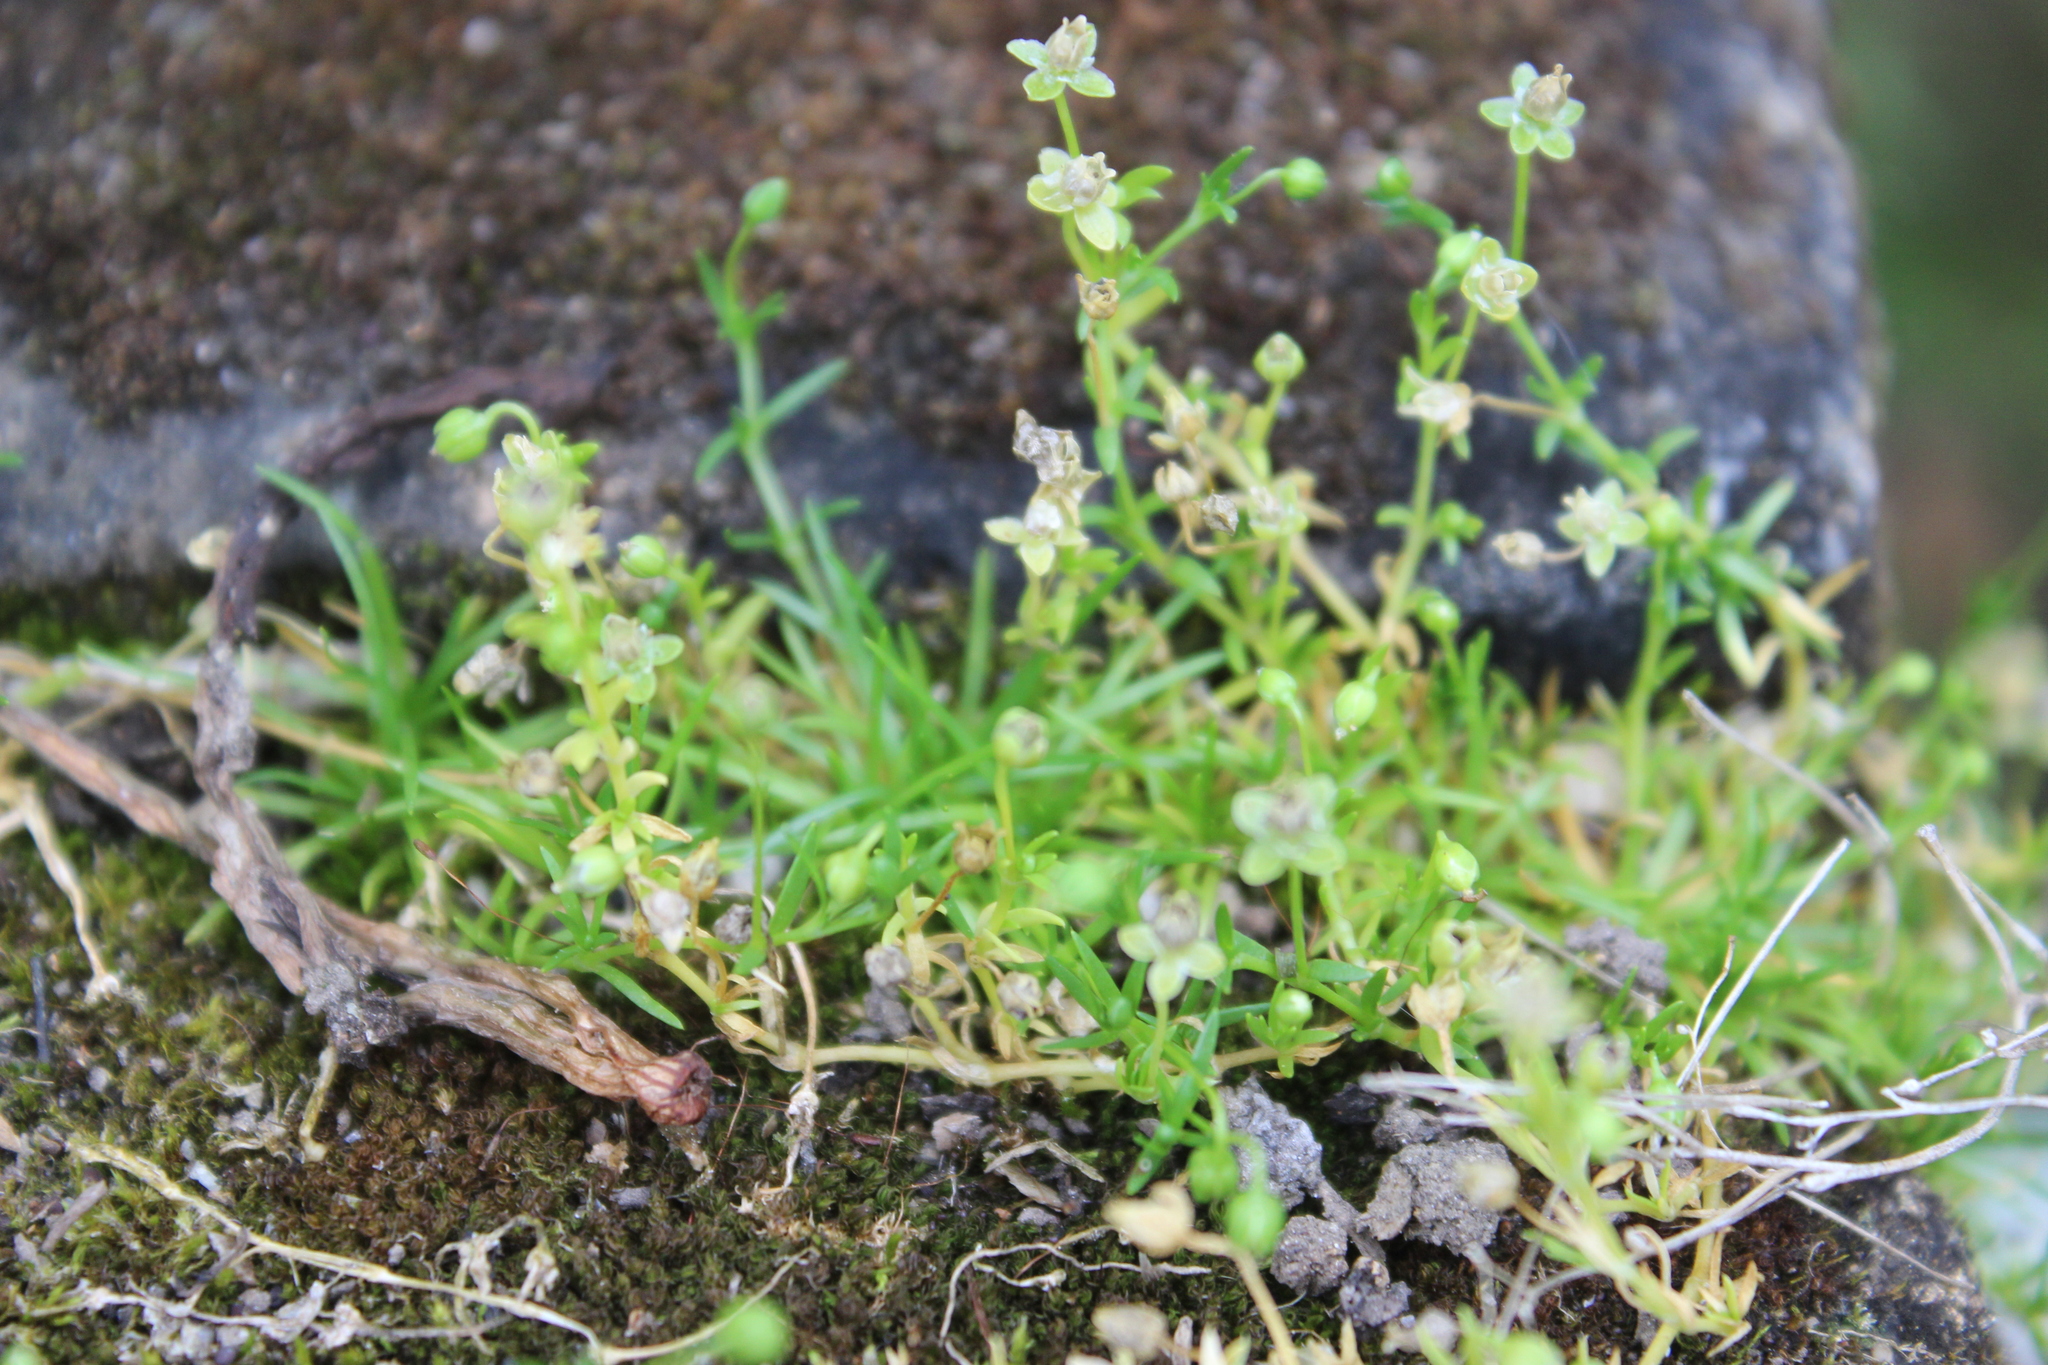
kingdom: Plantae
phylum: Tracheophyta
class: Magnoliopsida
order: Caryophyllales
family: Caryophyllaceae
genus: Sagina
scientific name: Sagina procumbens
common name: Procumbent pearlwort
